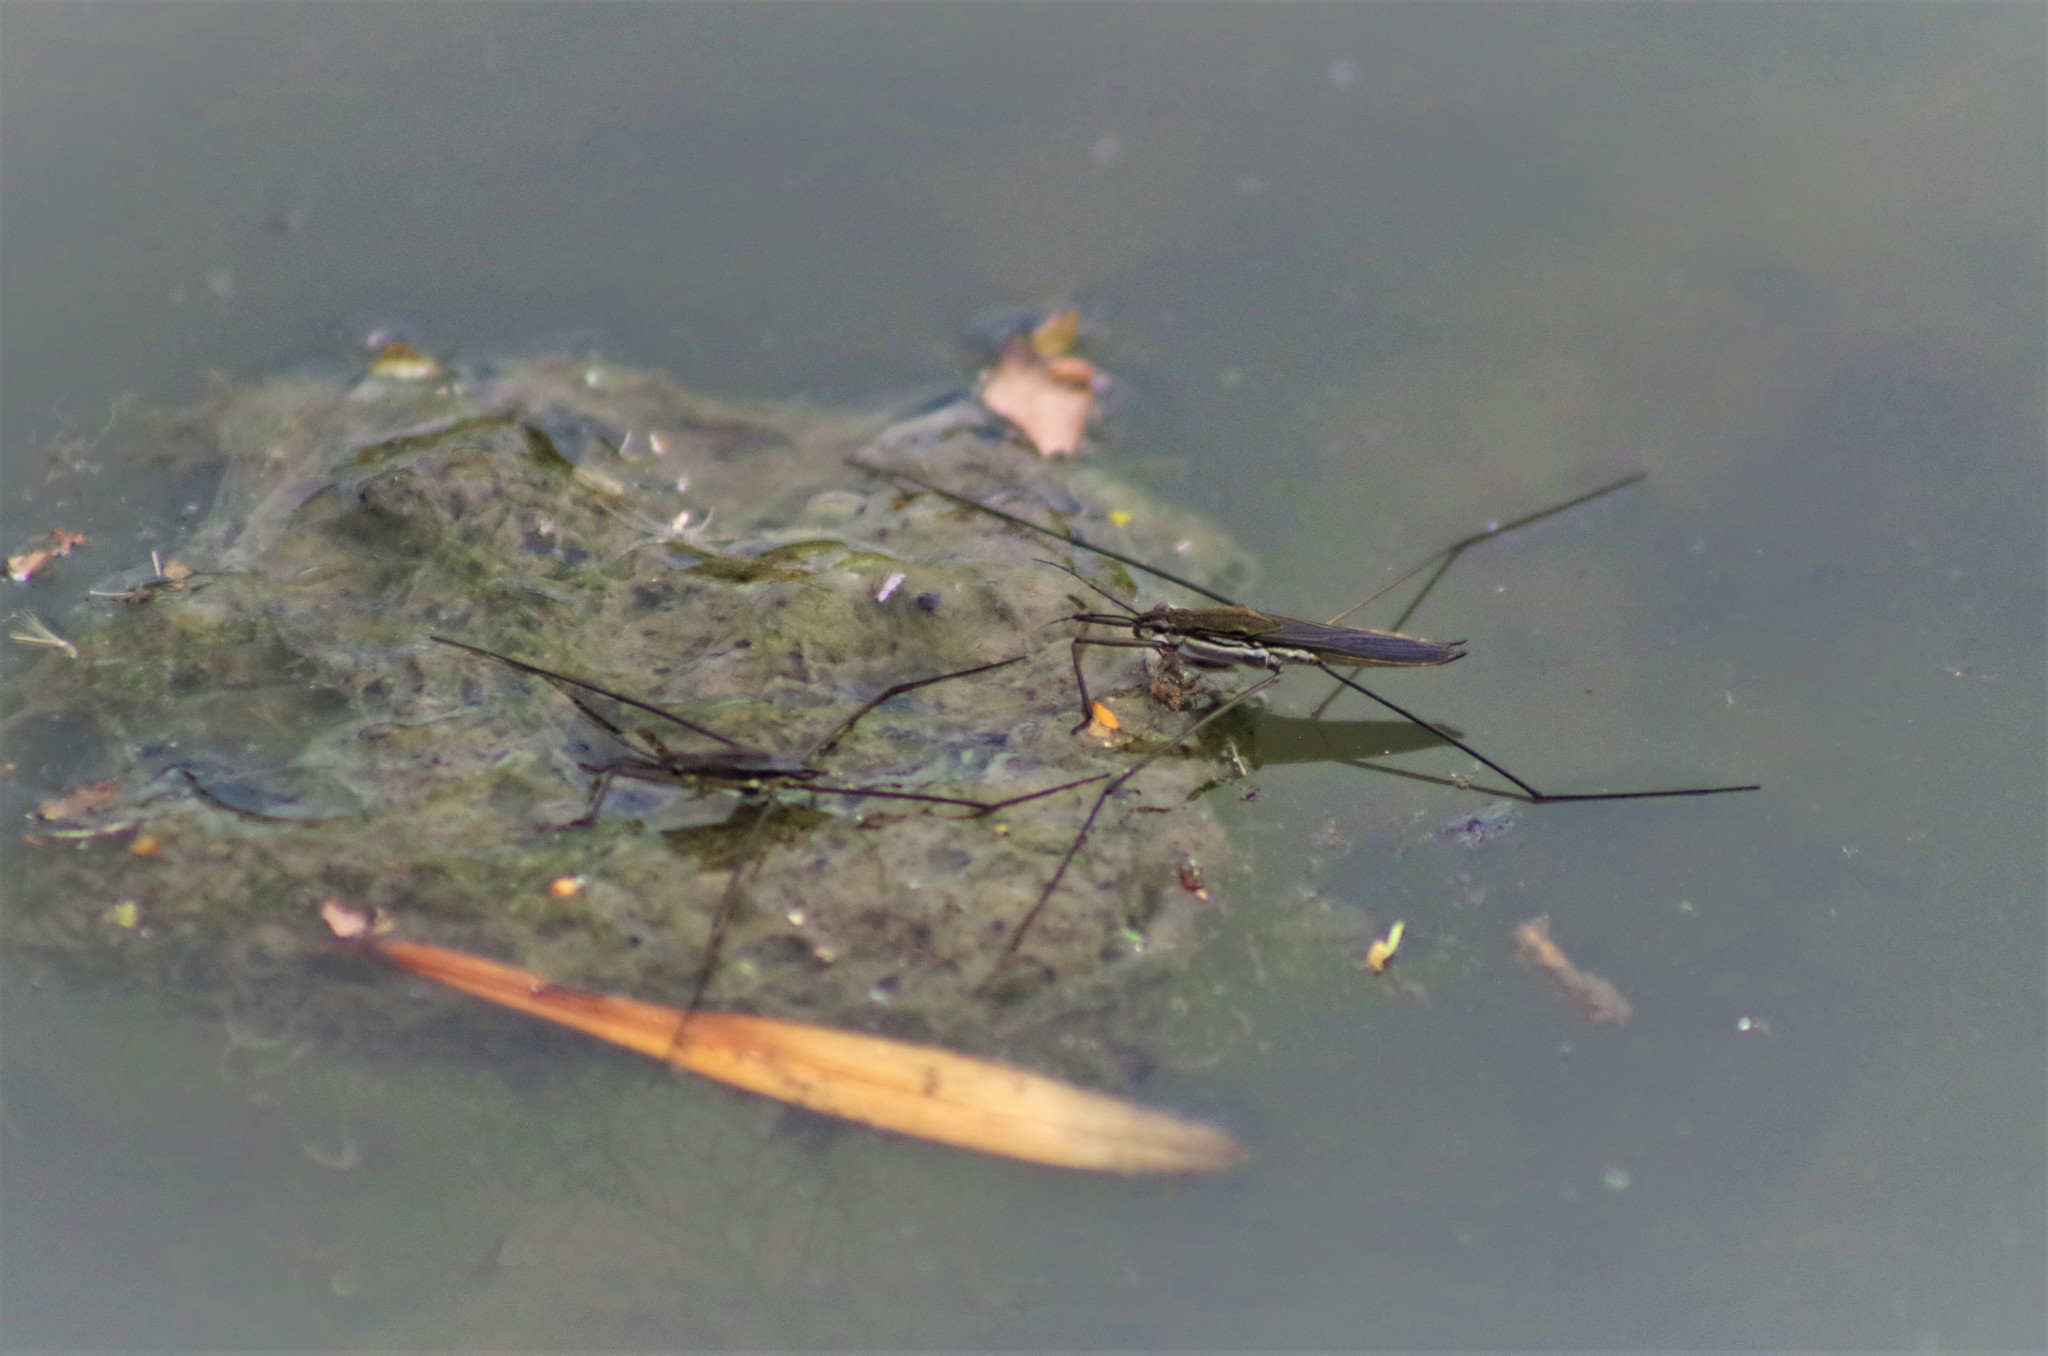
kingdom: Animalia
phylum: Arthropoda
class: Insecta
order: Hemiptera
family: Gerridae
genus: Aquarius
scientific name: Aquarius paludum
